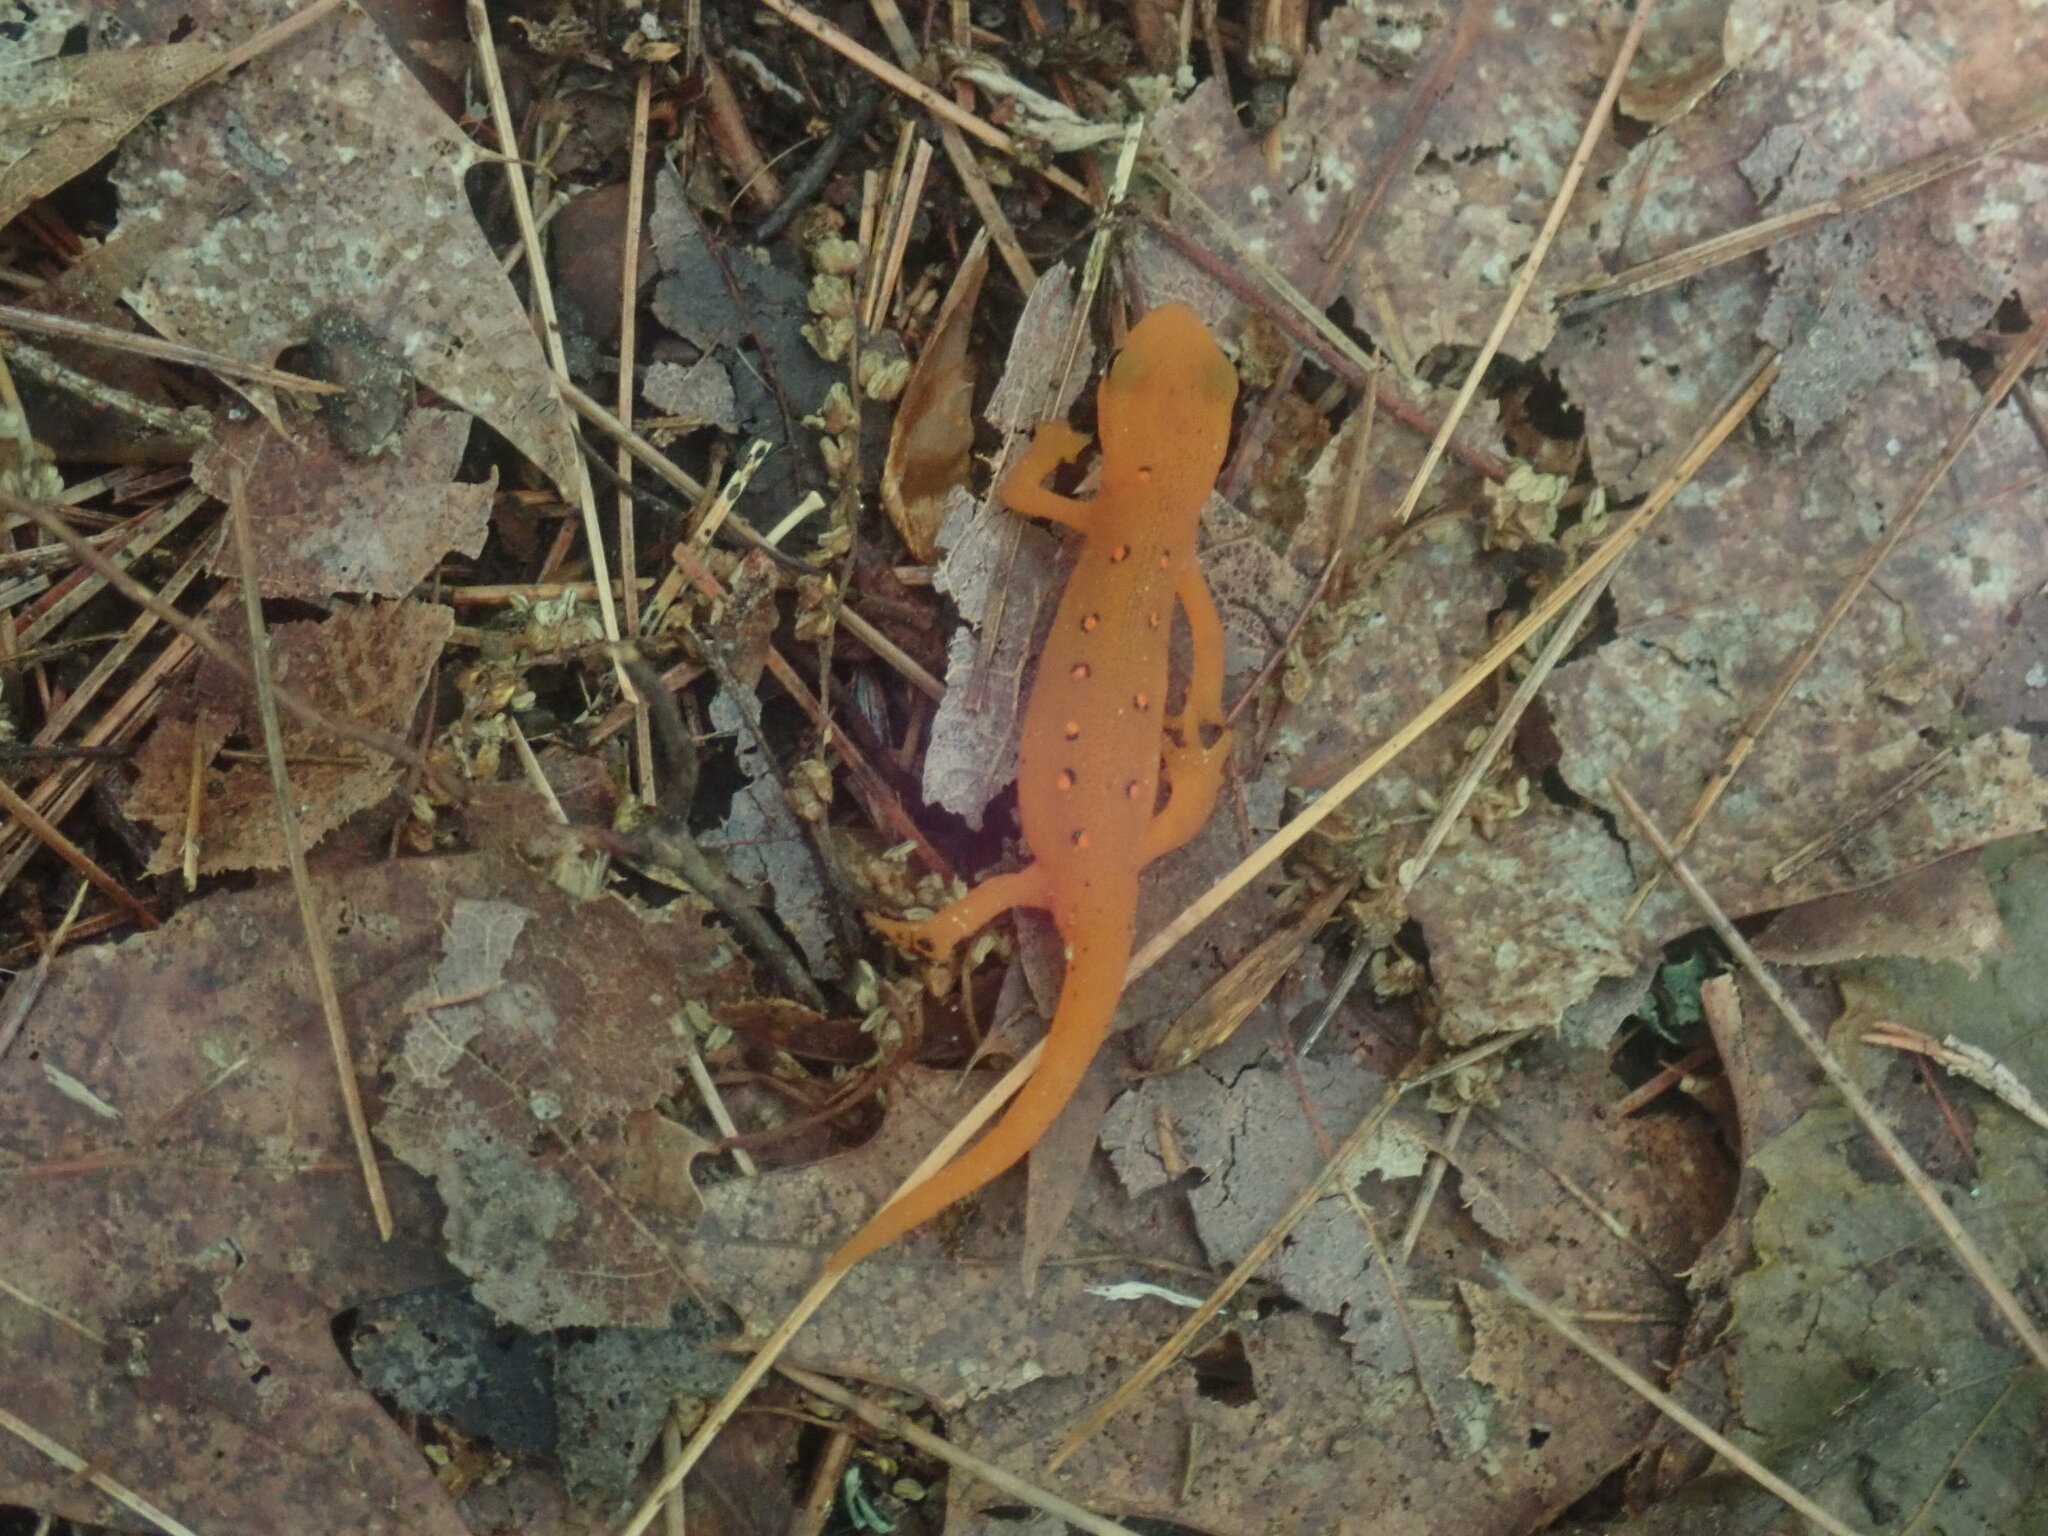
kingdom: Animalia
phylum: Chordata
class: Amphibia
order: Caudata
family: Salamandridae
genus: Notophthalmus
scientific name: Notophthalmus viridescens
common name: Eastern newt
